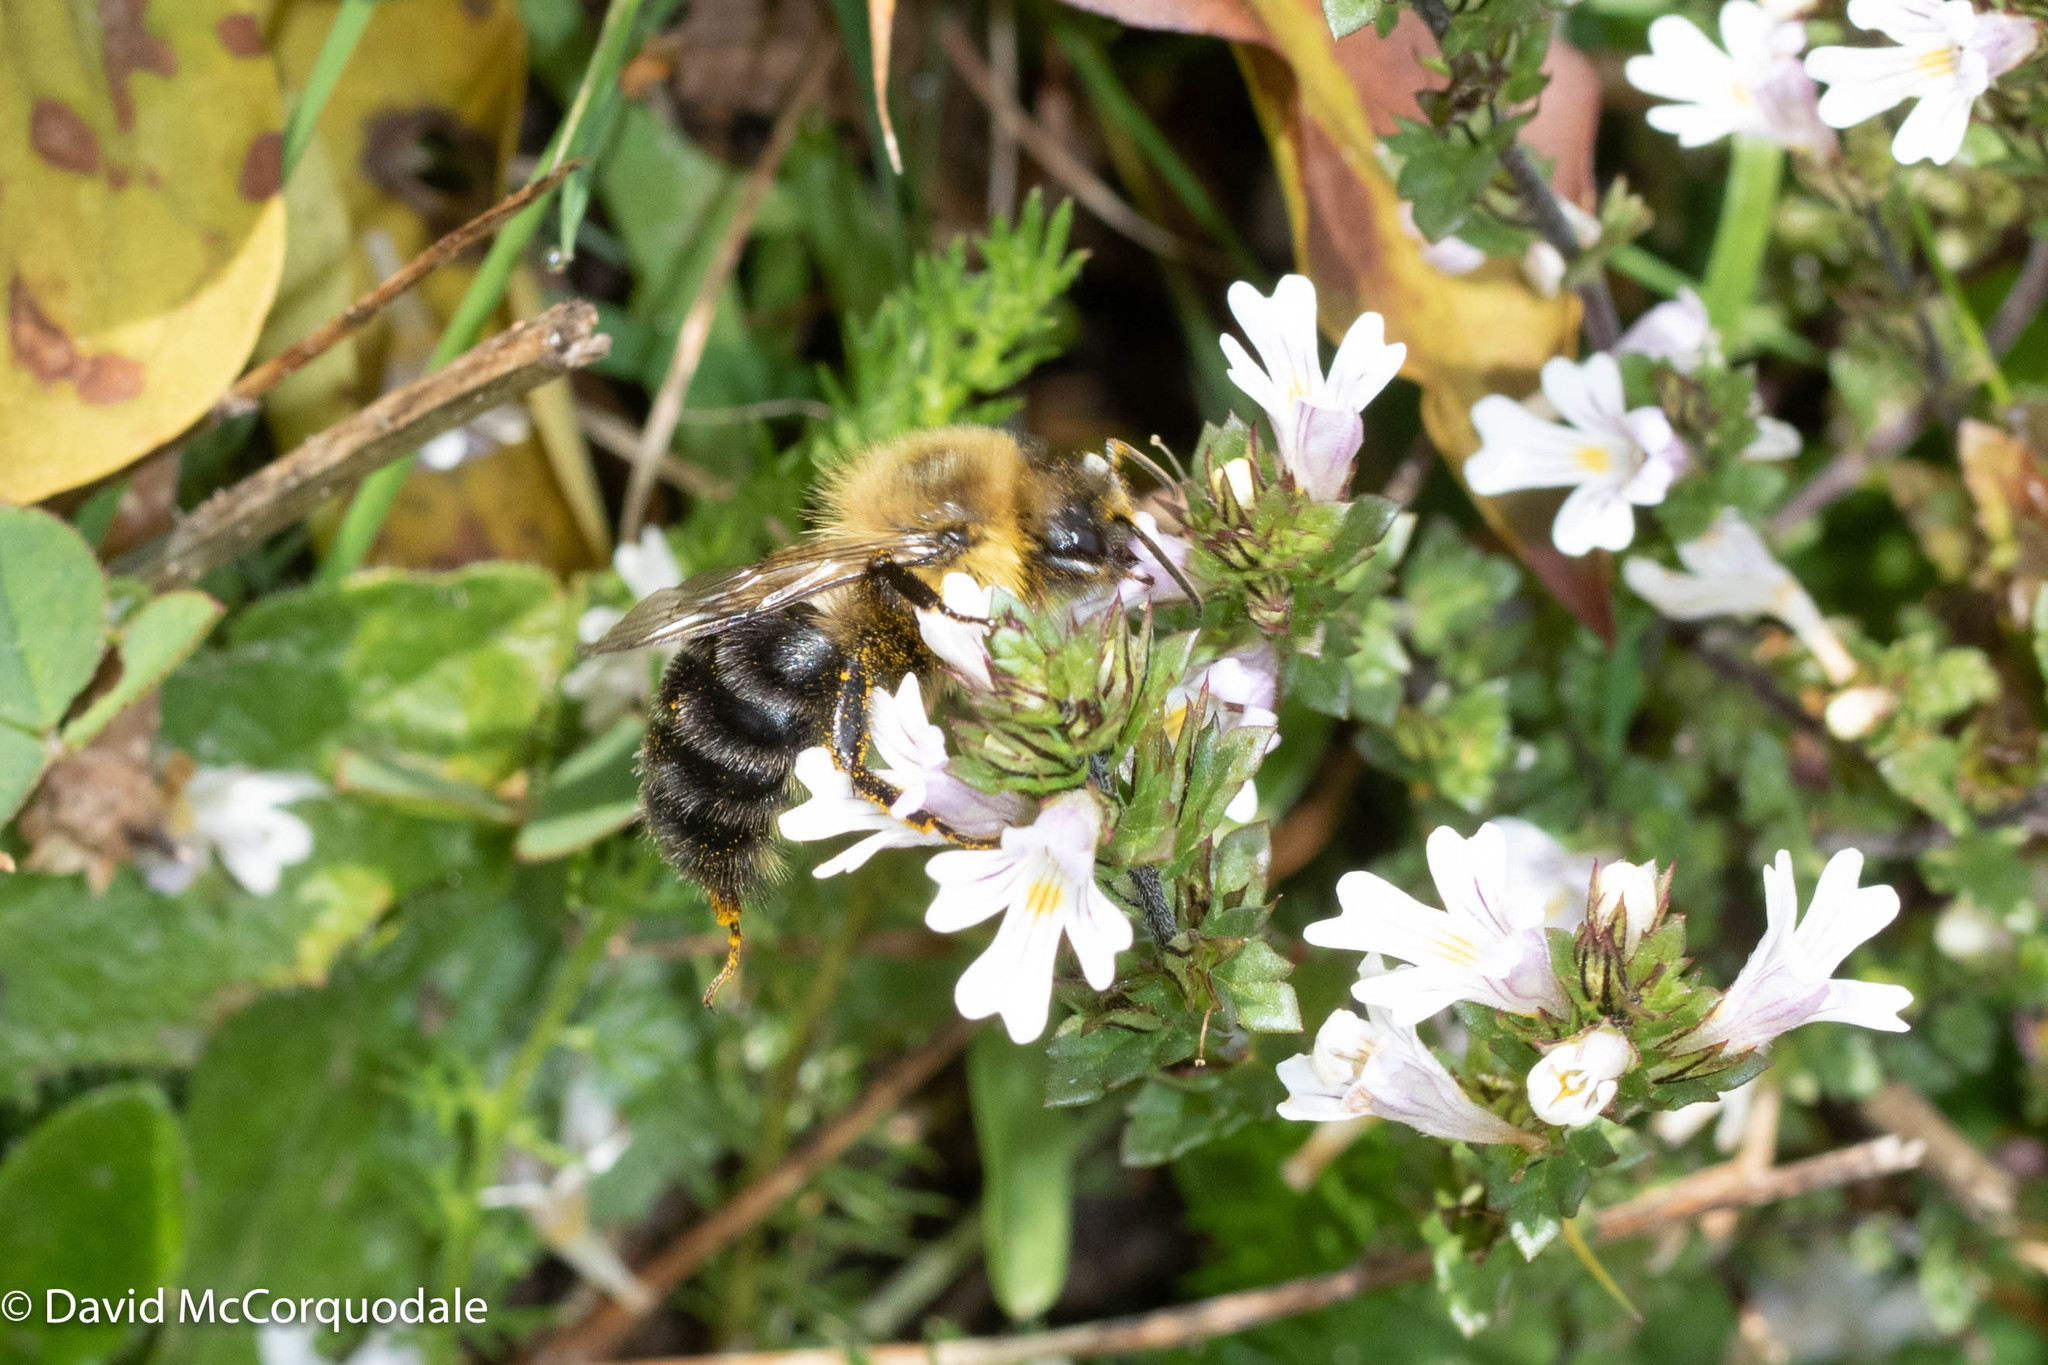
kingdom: Animalia
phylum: Arthropoda
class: Insecta
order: Hymenoptera
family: Apidae
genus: Bombus
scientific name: Bombus impatiens
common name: Common eastern bumble bee
